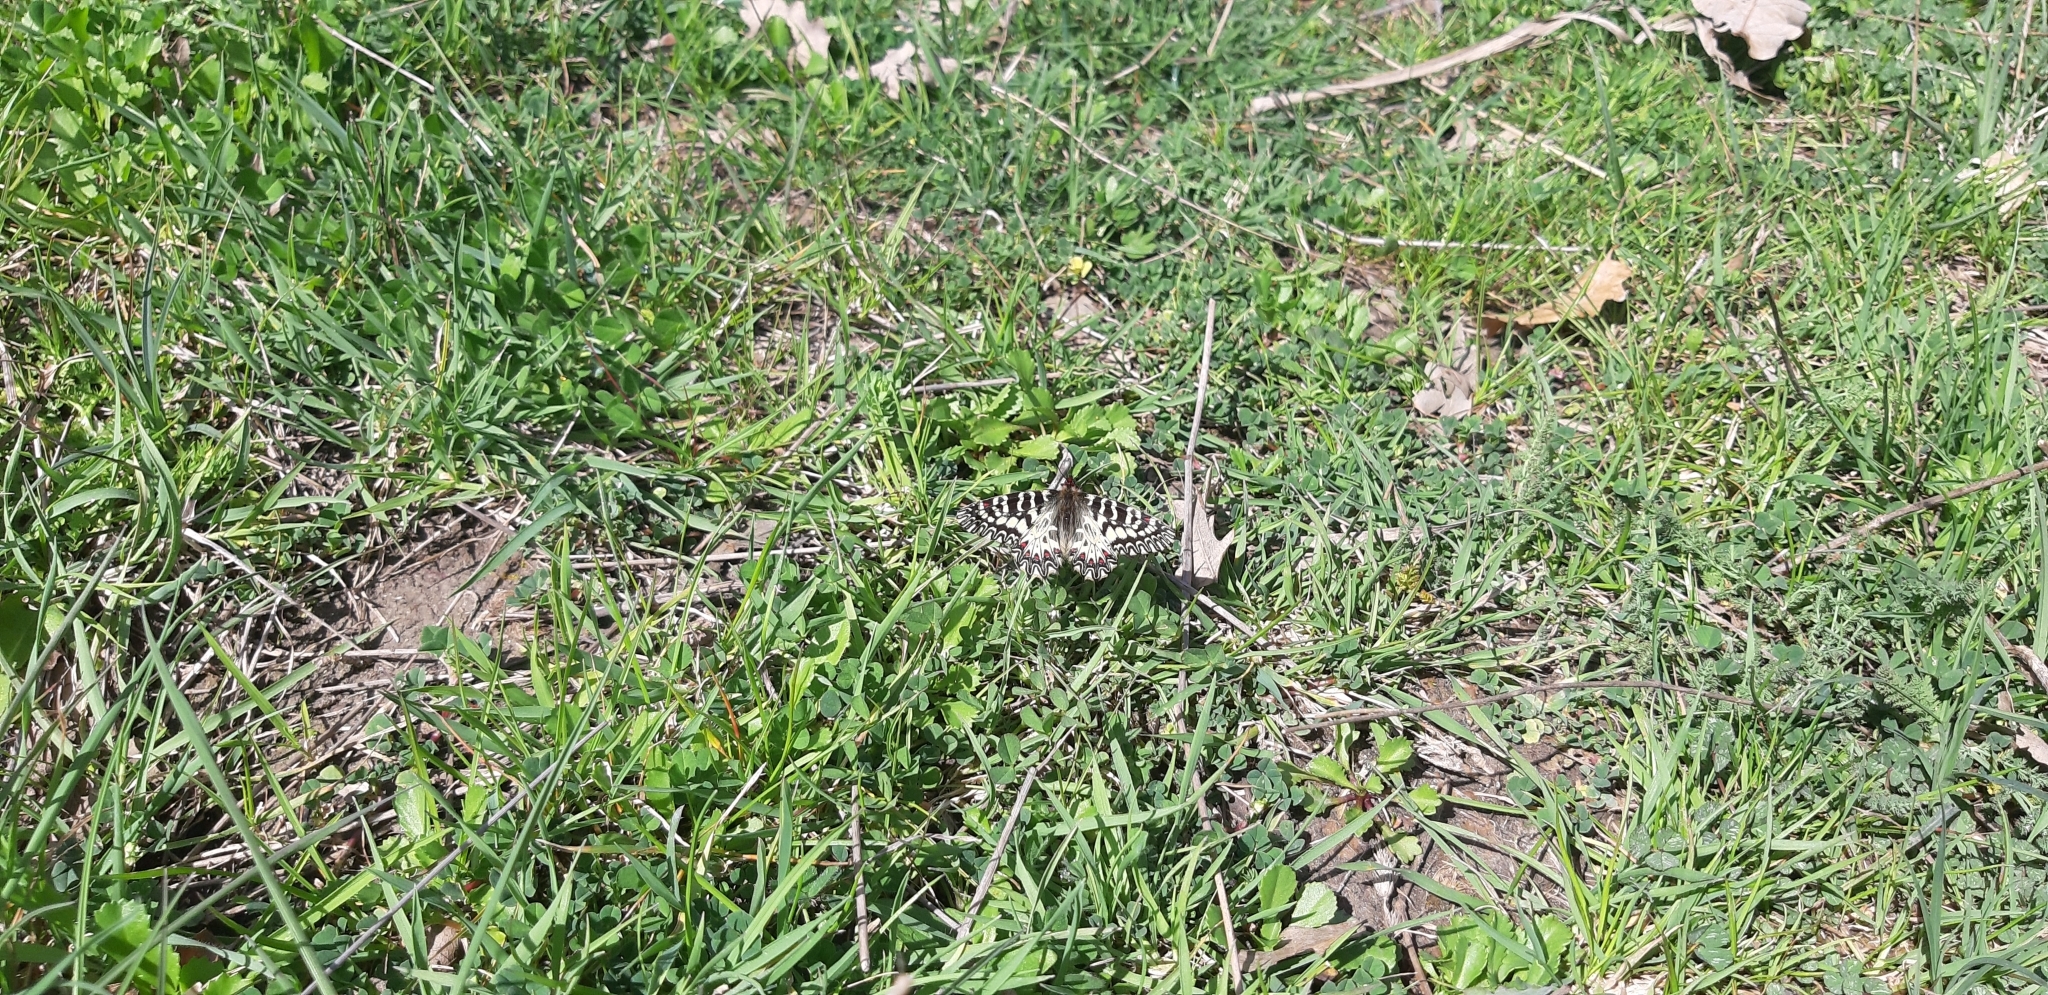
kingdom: Animalia
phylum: Arthropoda
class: Insecta
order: Lepidoptera
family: Papilionidae
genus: Zerynthia
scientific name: Zerynthia cassandra
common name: Italian festoon
